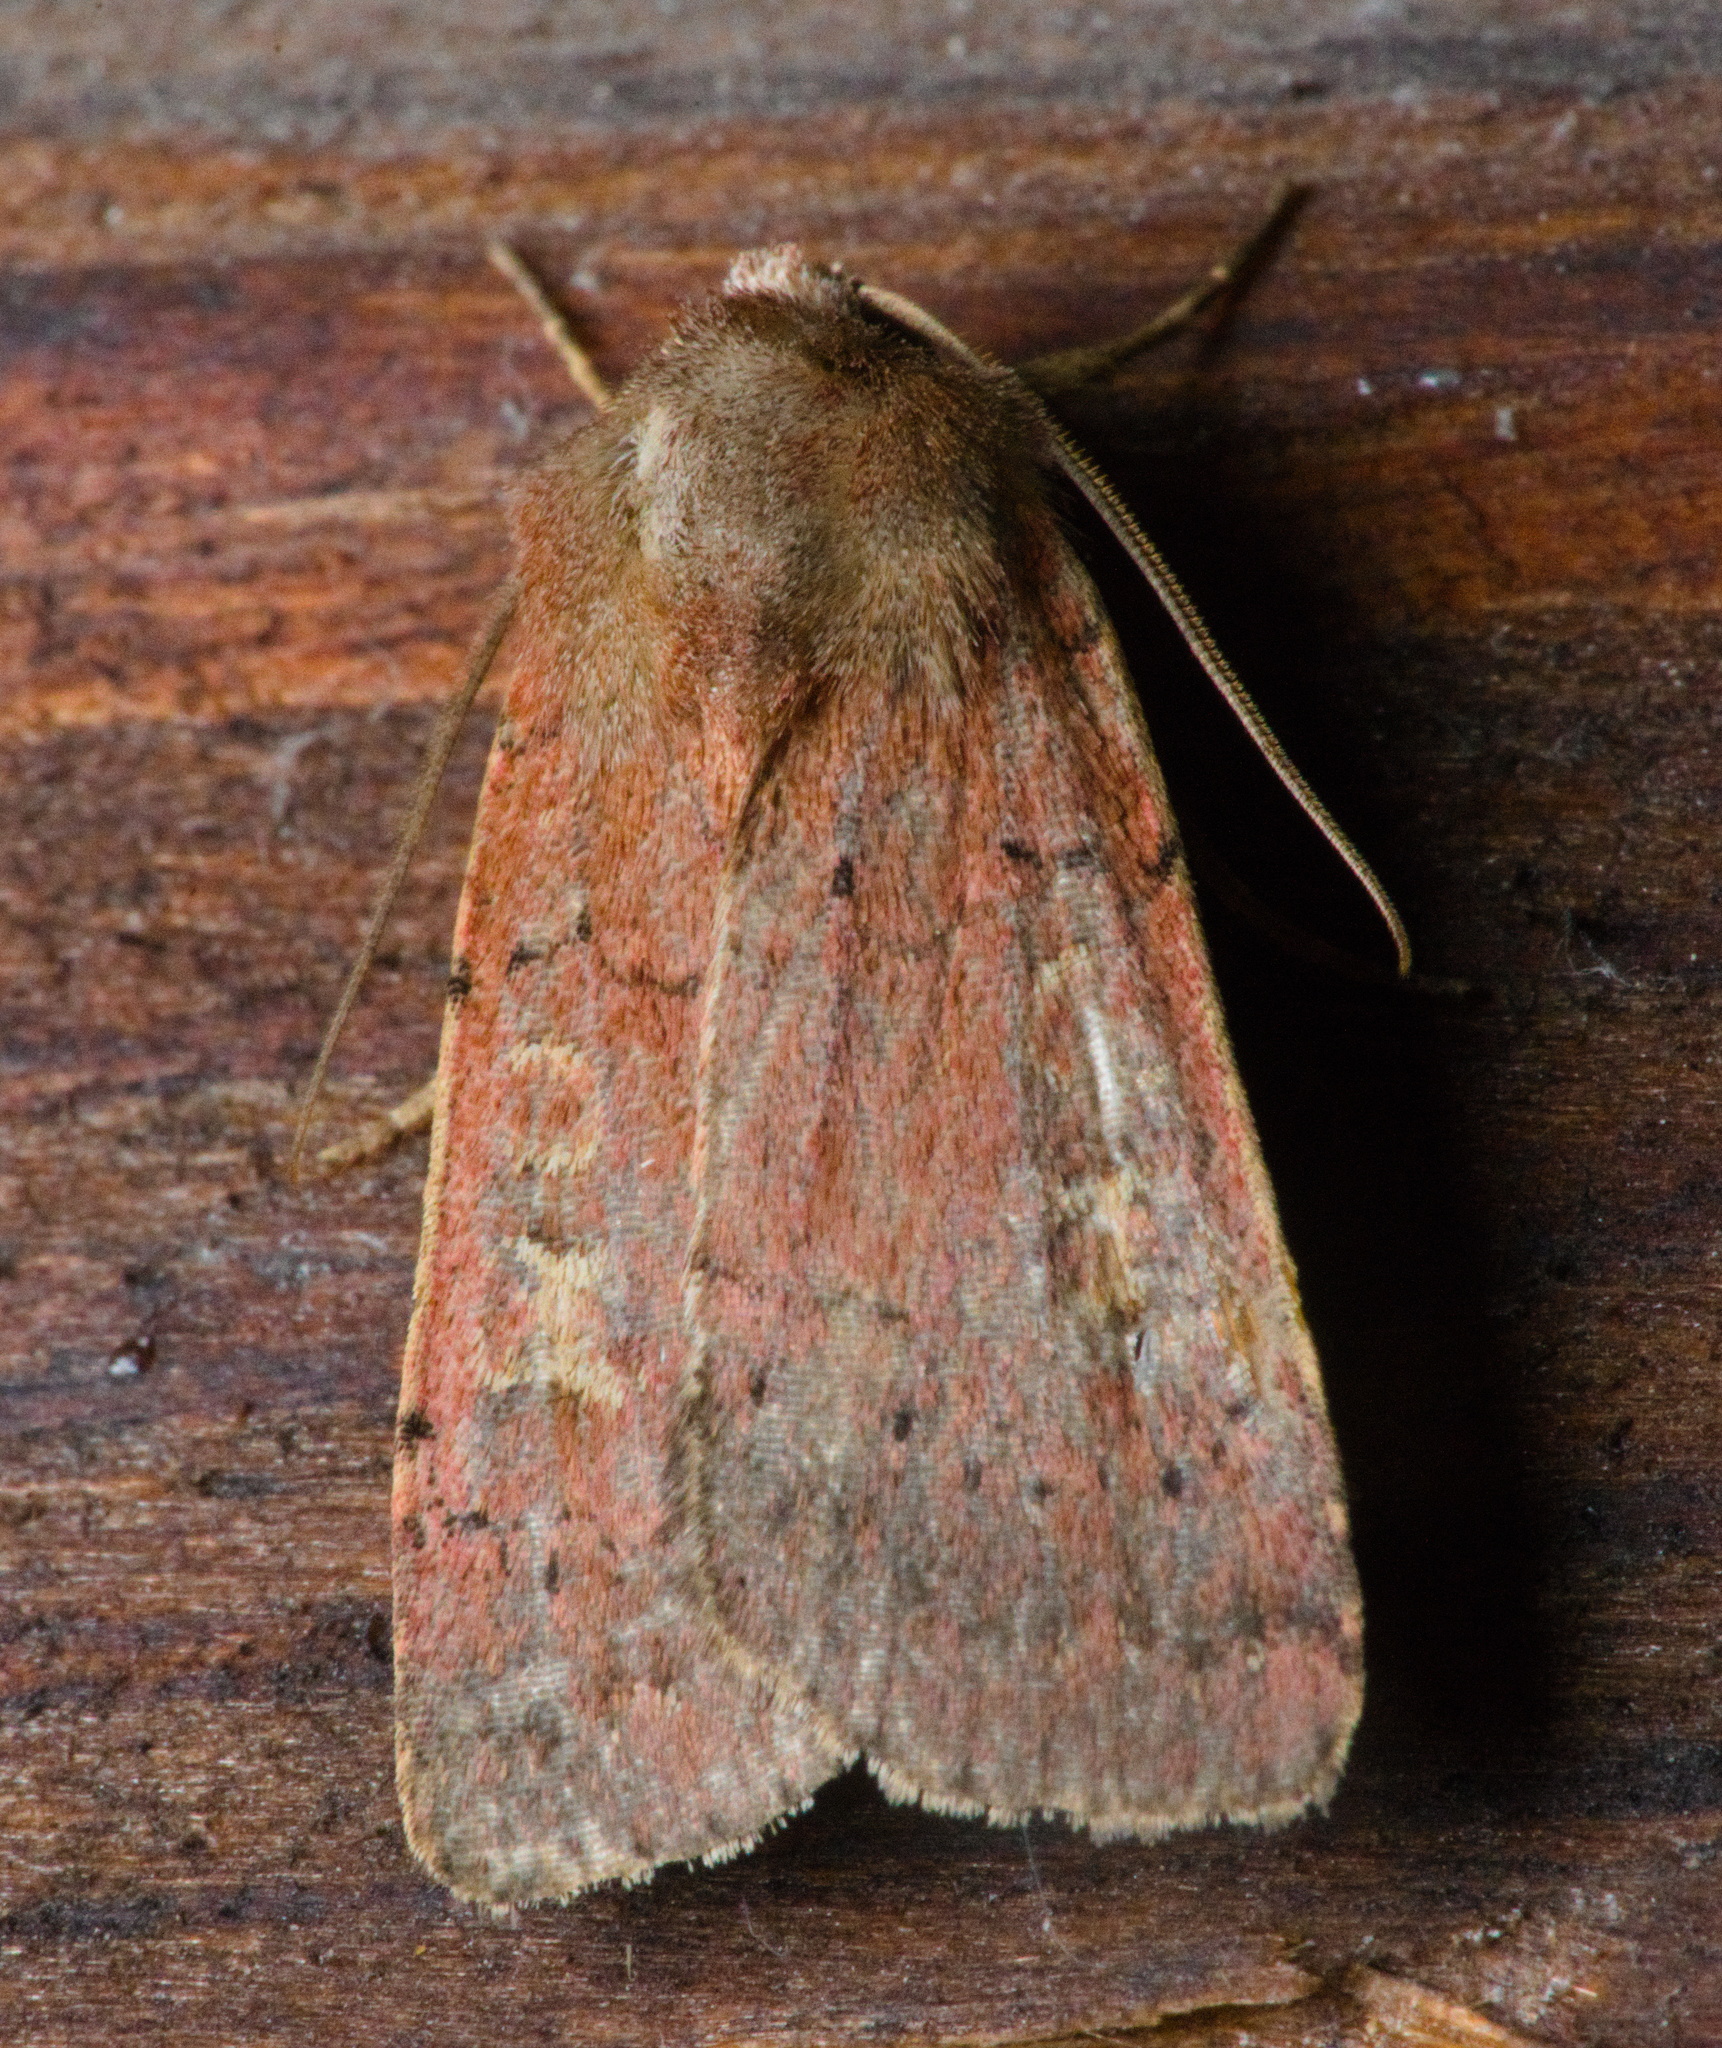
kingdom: Animalia
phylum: Arthropoda
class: Insecta
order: Lepidoptera
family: Noctuidae
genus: Xestia
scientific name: Xestia xanthographa
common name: Square-spot rustic
